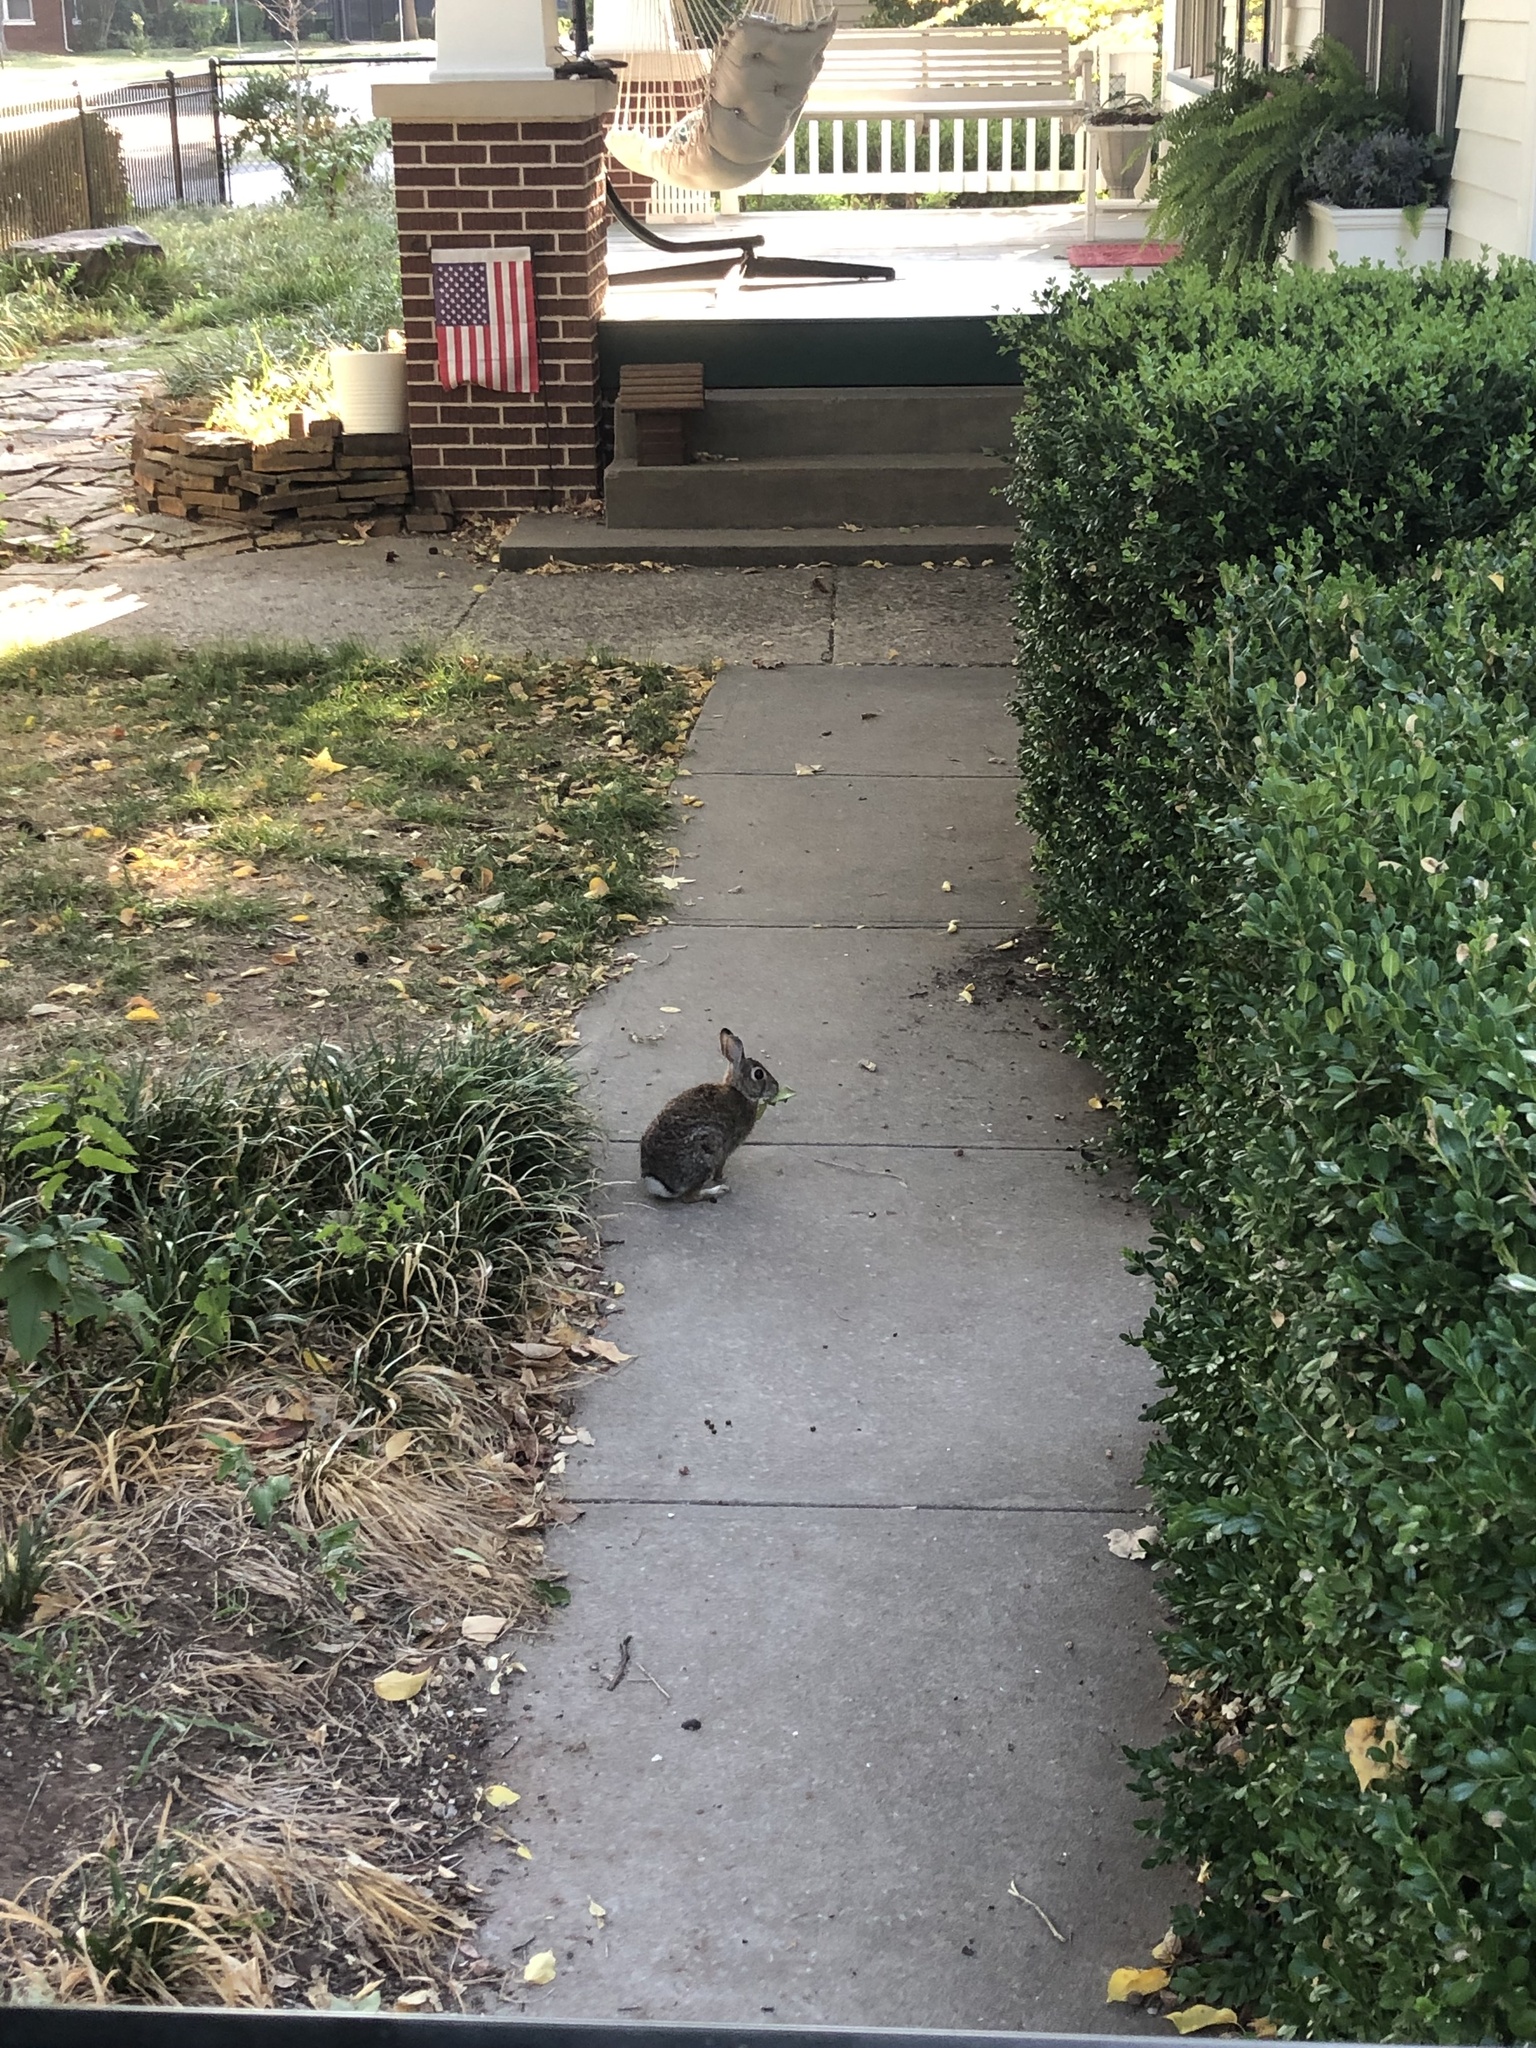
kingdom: Animalia
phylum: Chordata
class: Mammalia
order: Lagomorpha
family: Leporidae
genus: Sylvilagus
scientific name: Sylvilagus floridanus
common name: Eastern cottontail
